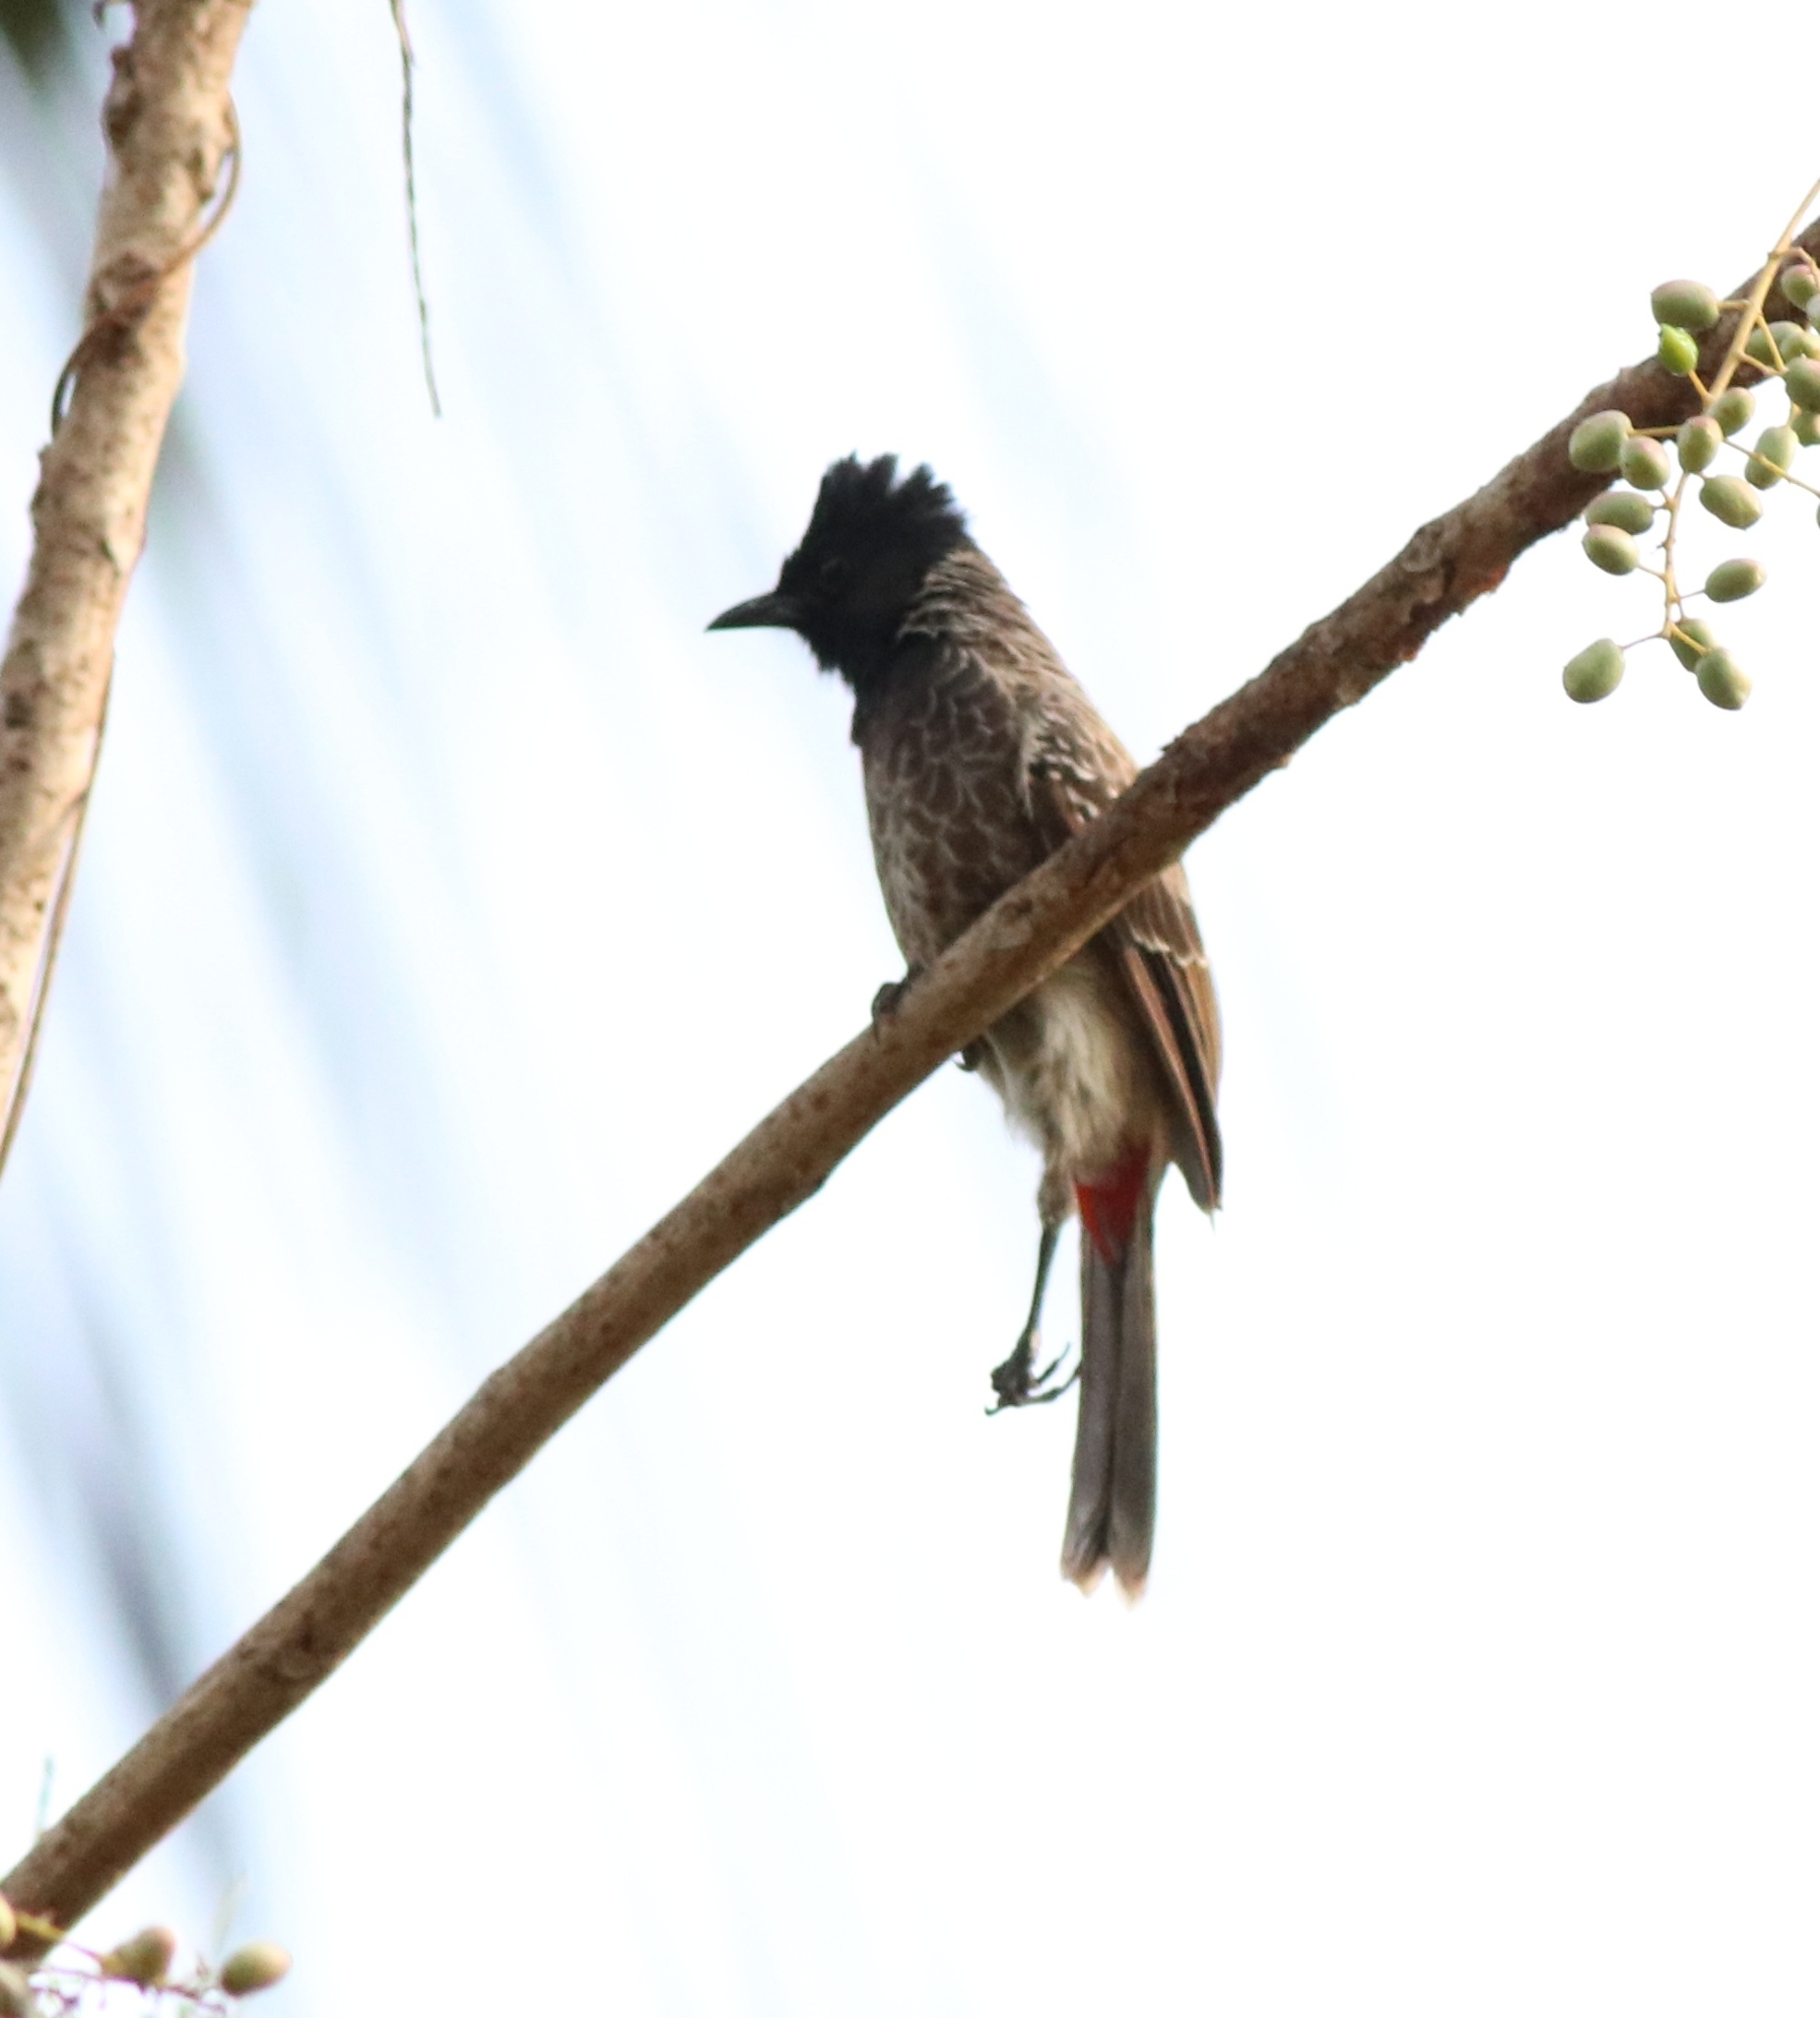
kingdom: Animalia
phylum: Chordata
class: Aves
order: Passeriformes
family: Pycnonotidae
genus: Pycnonotus
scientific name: Pycnonotus cafer
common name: Red-vented bulbul
